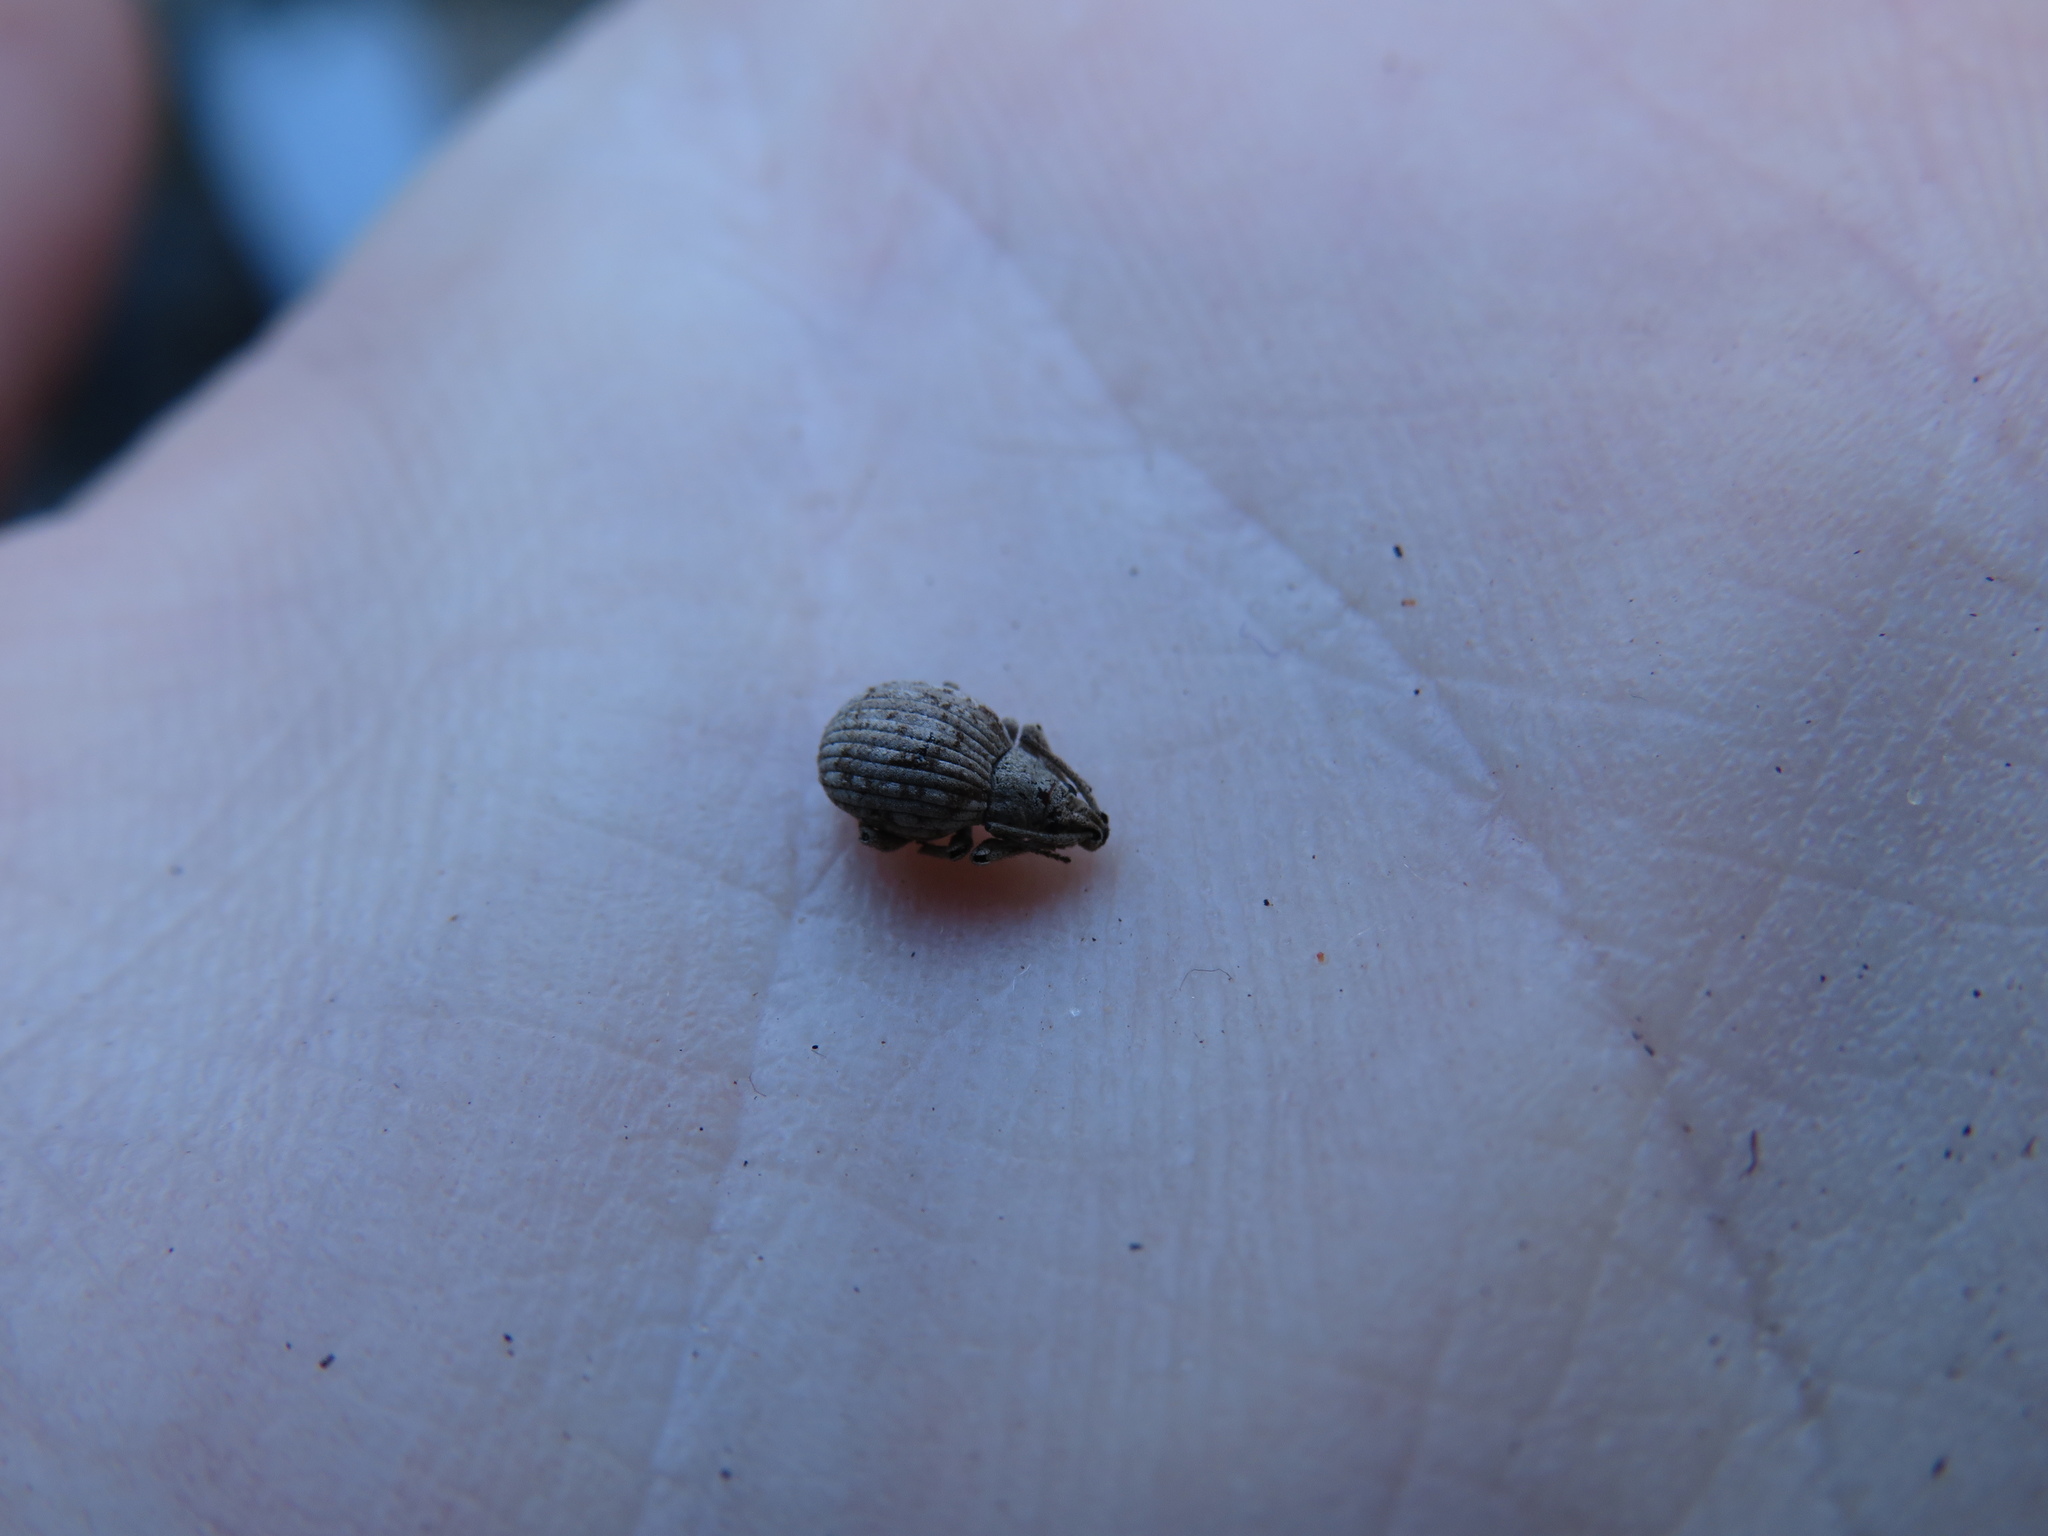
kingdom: Animalia
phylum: Arthropoda
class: Insecta
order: Coleoptera
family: Curculionidae
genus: Ellimenistes
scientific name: Ellimenistes laesicollis
